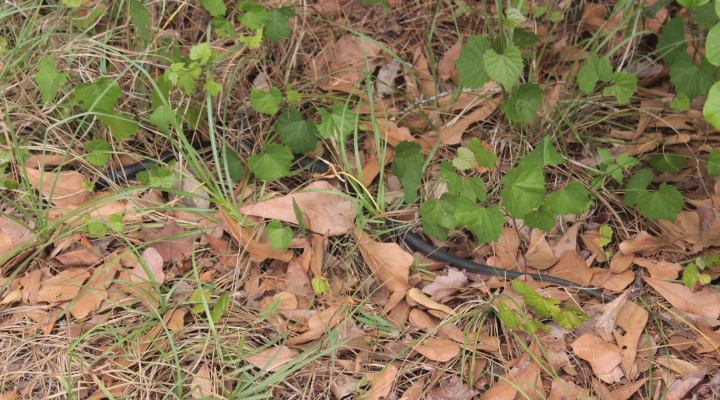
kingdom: Animalia
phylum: Chordata
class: Squamata
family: Colubridae
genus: Coluber
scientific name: Coluber constrictor
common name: Eastern racer
